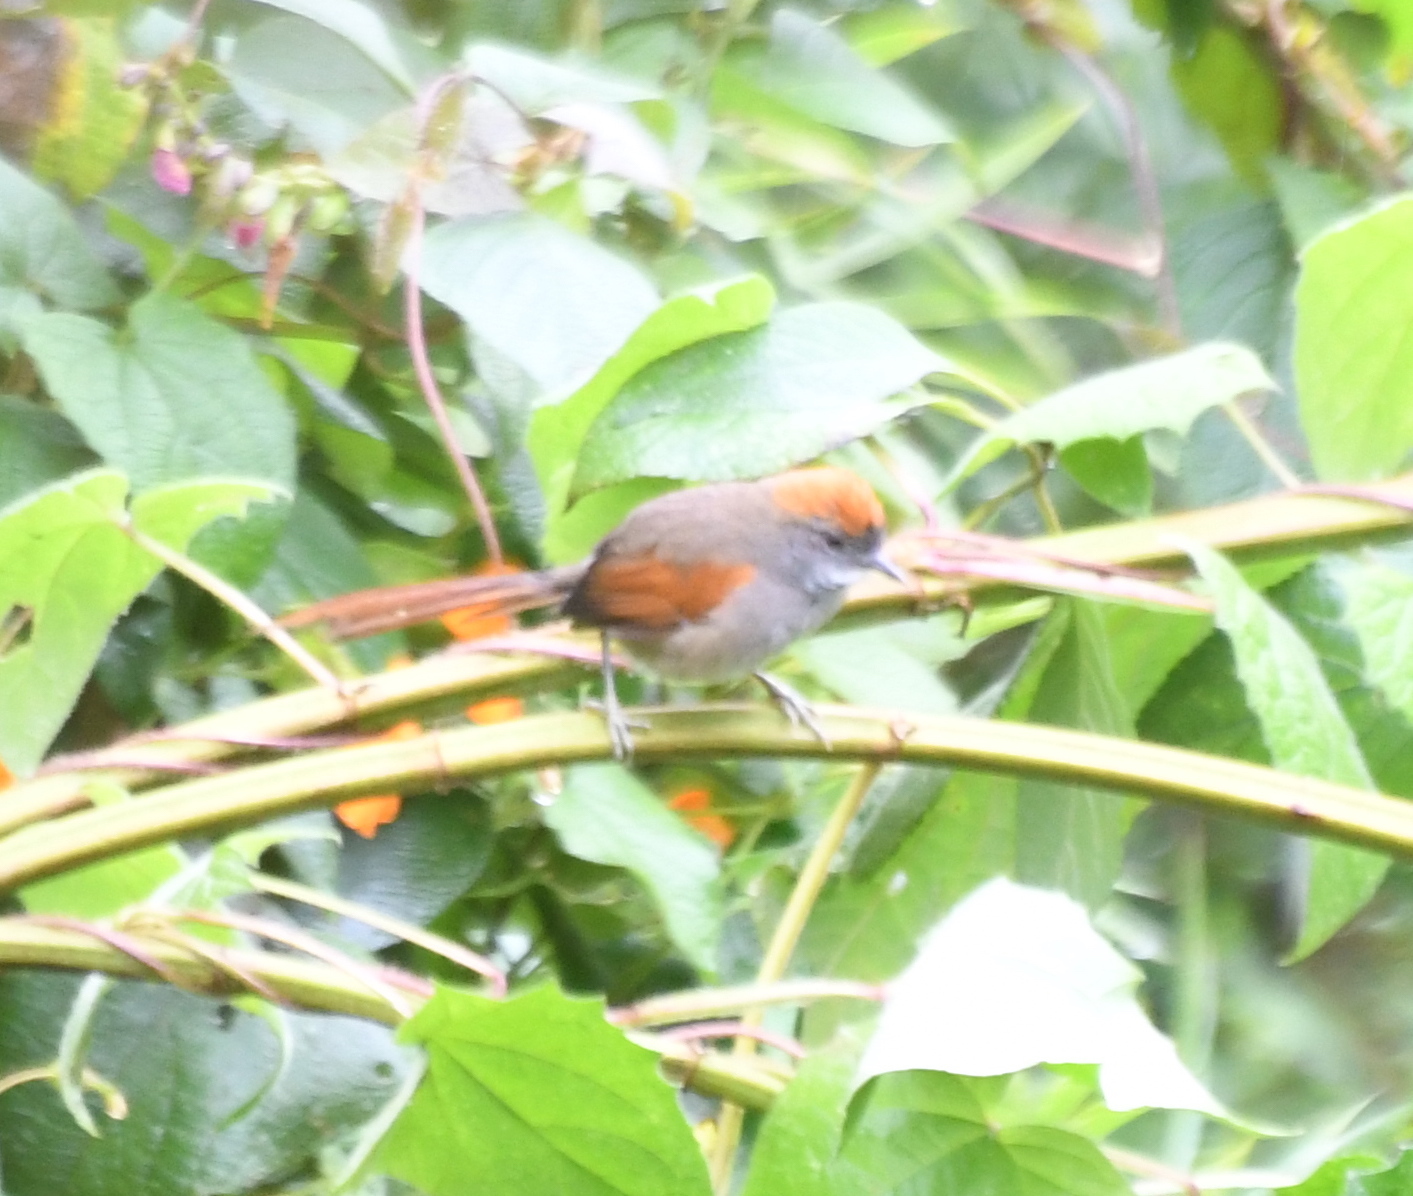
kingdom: Animalia
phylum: Chordata
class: Aves
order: Passeriformes
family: Furnariidae
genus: Synallaxis
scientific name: Synallaxis azarae
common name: Azara's spinetail
